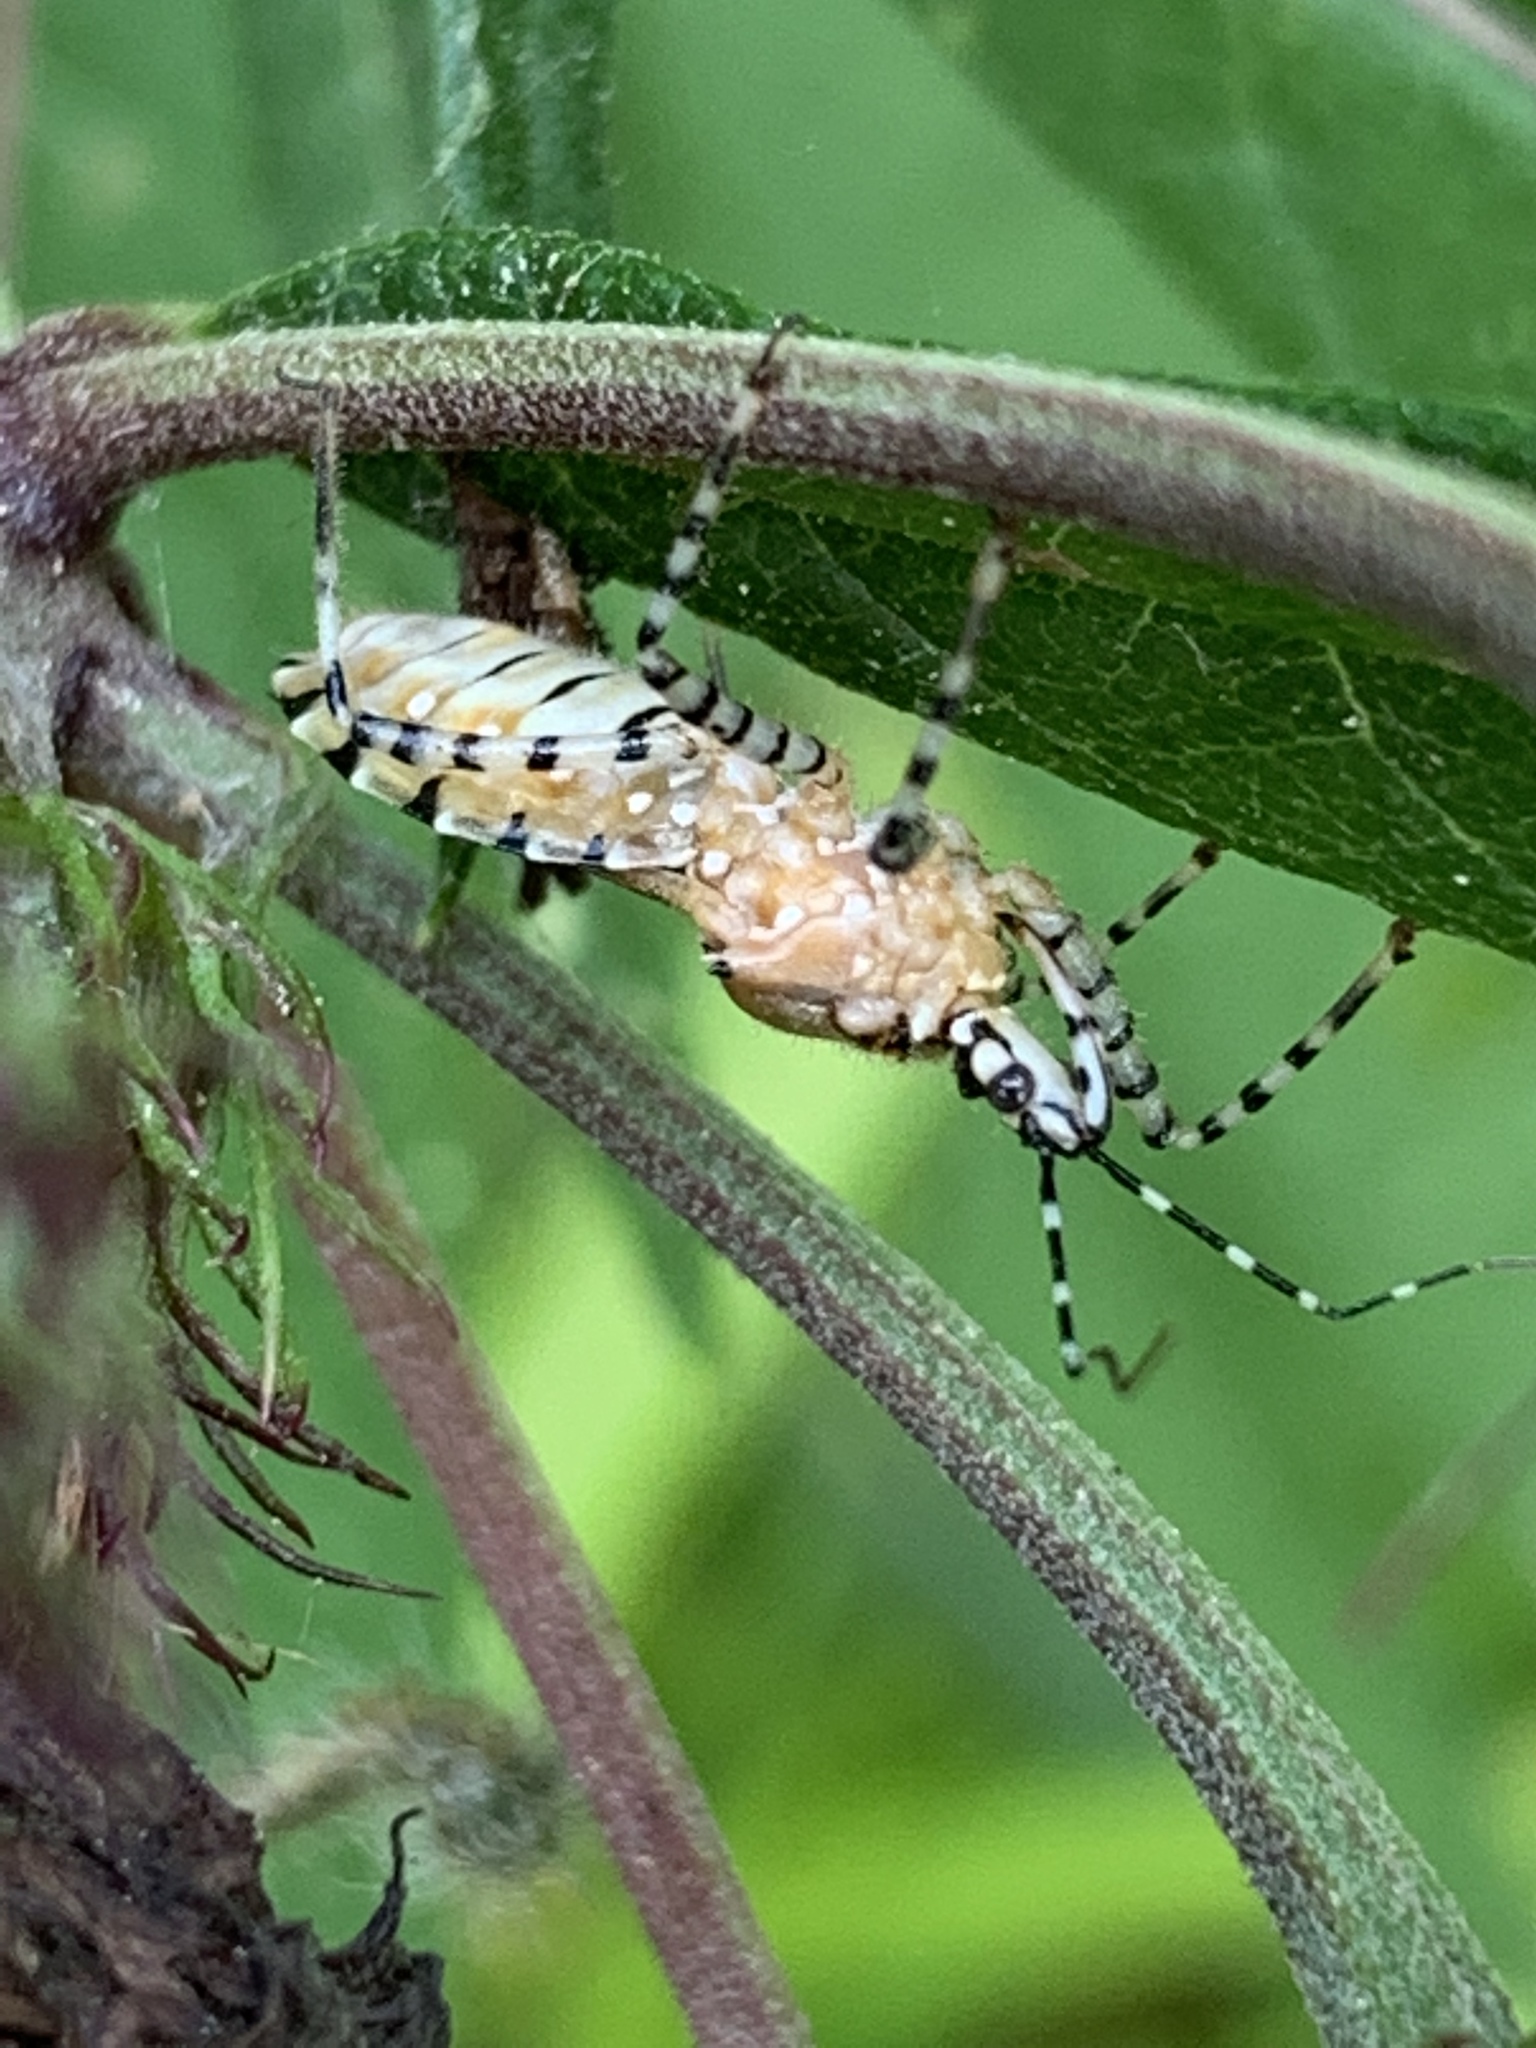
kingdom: Animalia
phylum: Arthropoda
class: Insecta
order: Hemiptera
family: Reduviidae
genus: Pselliopus
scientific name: Pselliopus cinctus
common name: Ringed assassin bug
